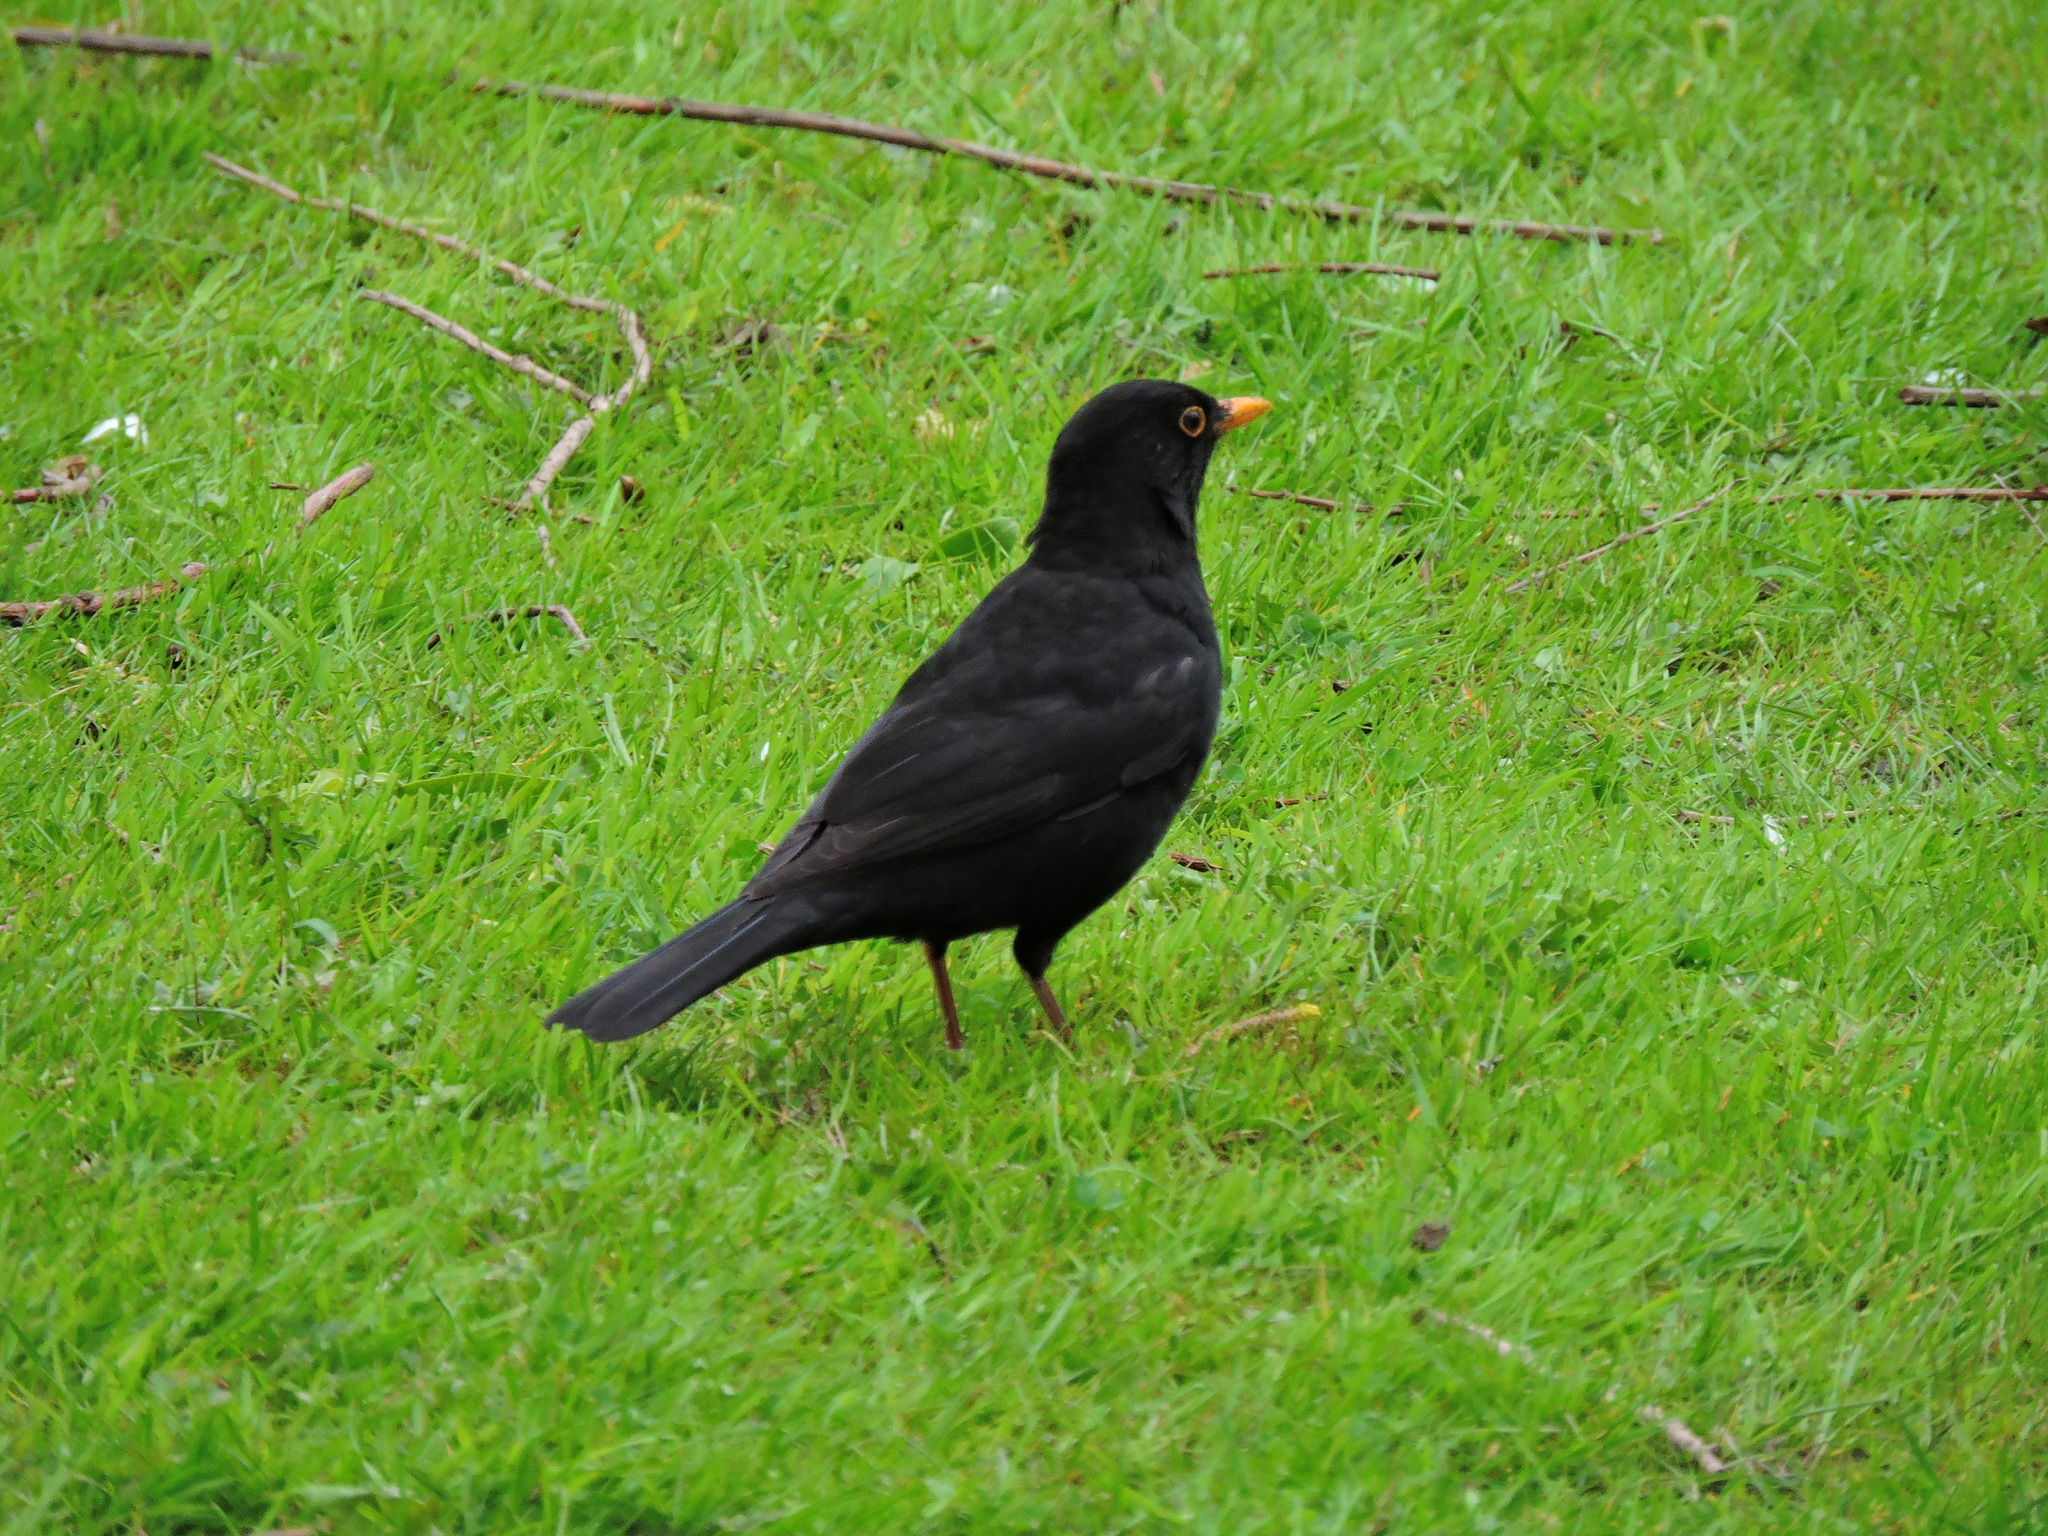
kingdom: Animalia
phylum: Chordata
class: Aves
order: Passeriformes
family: Turdidae
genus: Turdus
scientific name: Turdus merula
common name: Common blackbird
